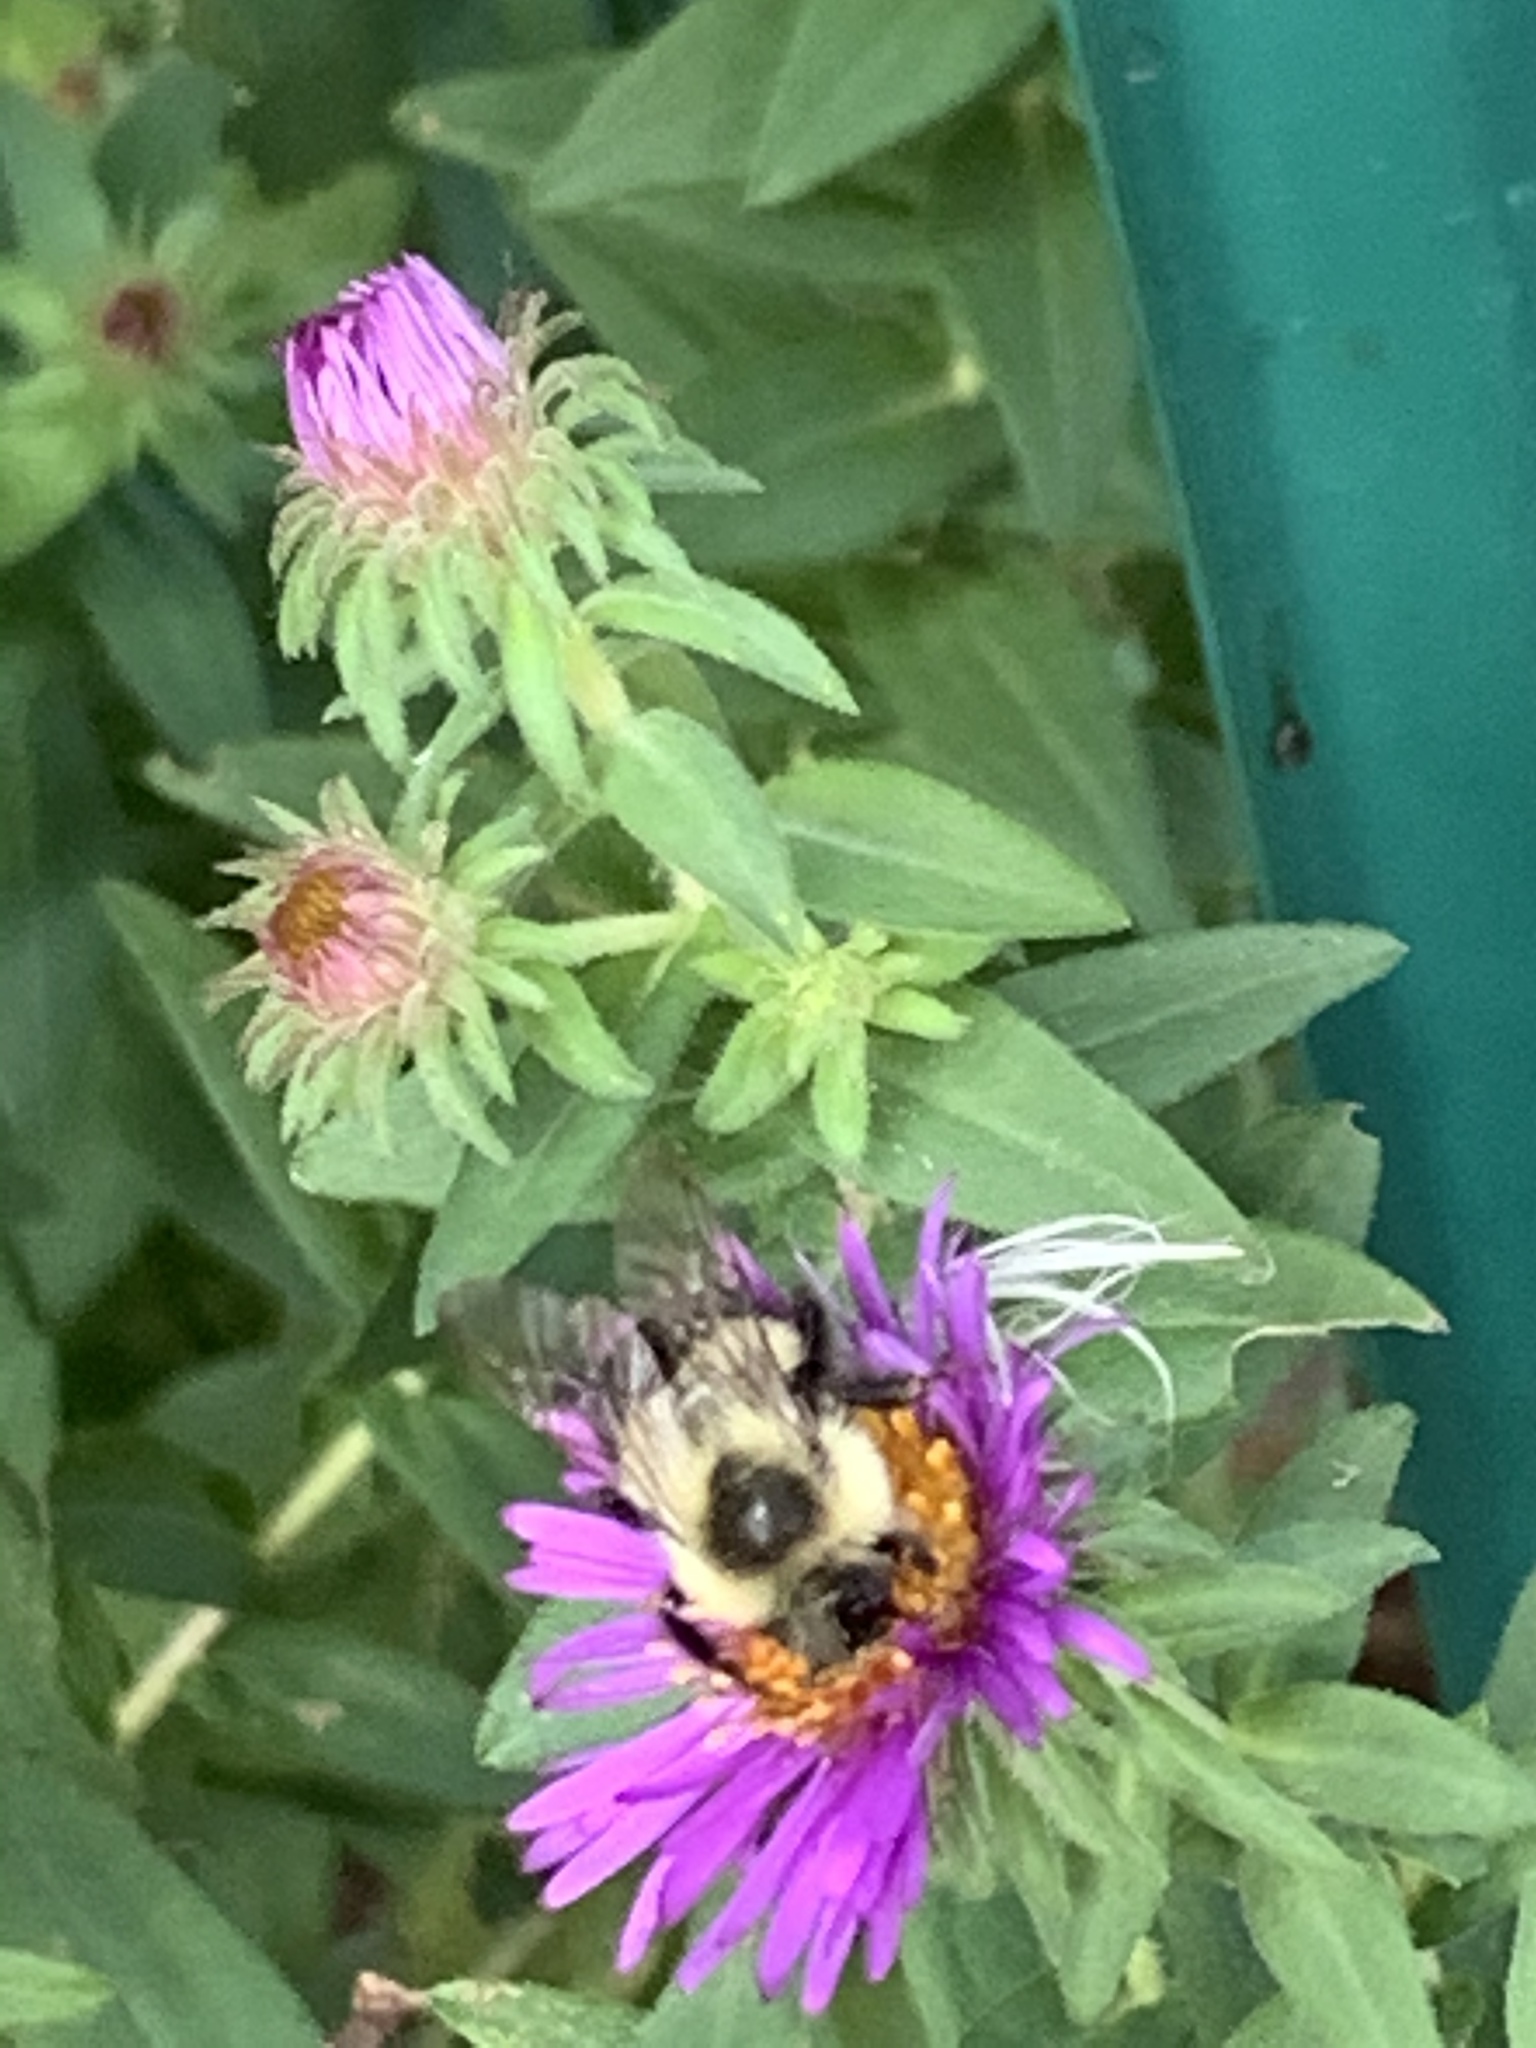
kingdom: Animalia
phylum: Arthropoda
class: Insecta
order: Hymenoptera
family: Apidae
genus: Bombus
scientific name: Bombus impatiens
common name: Common eastern bumble bee
